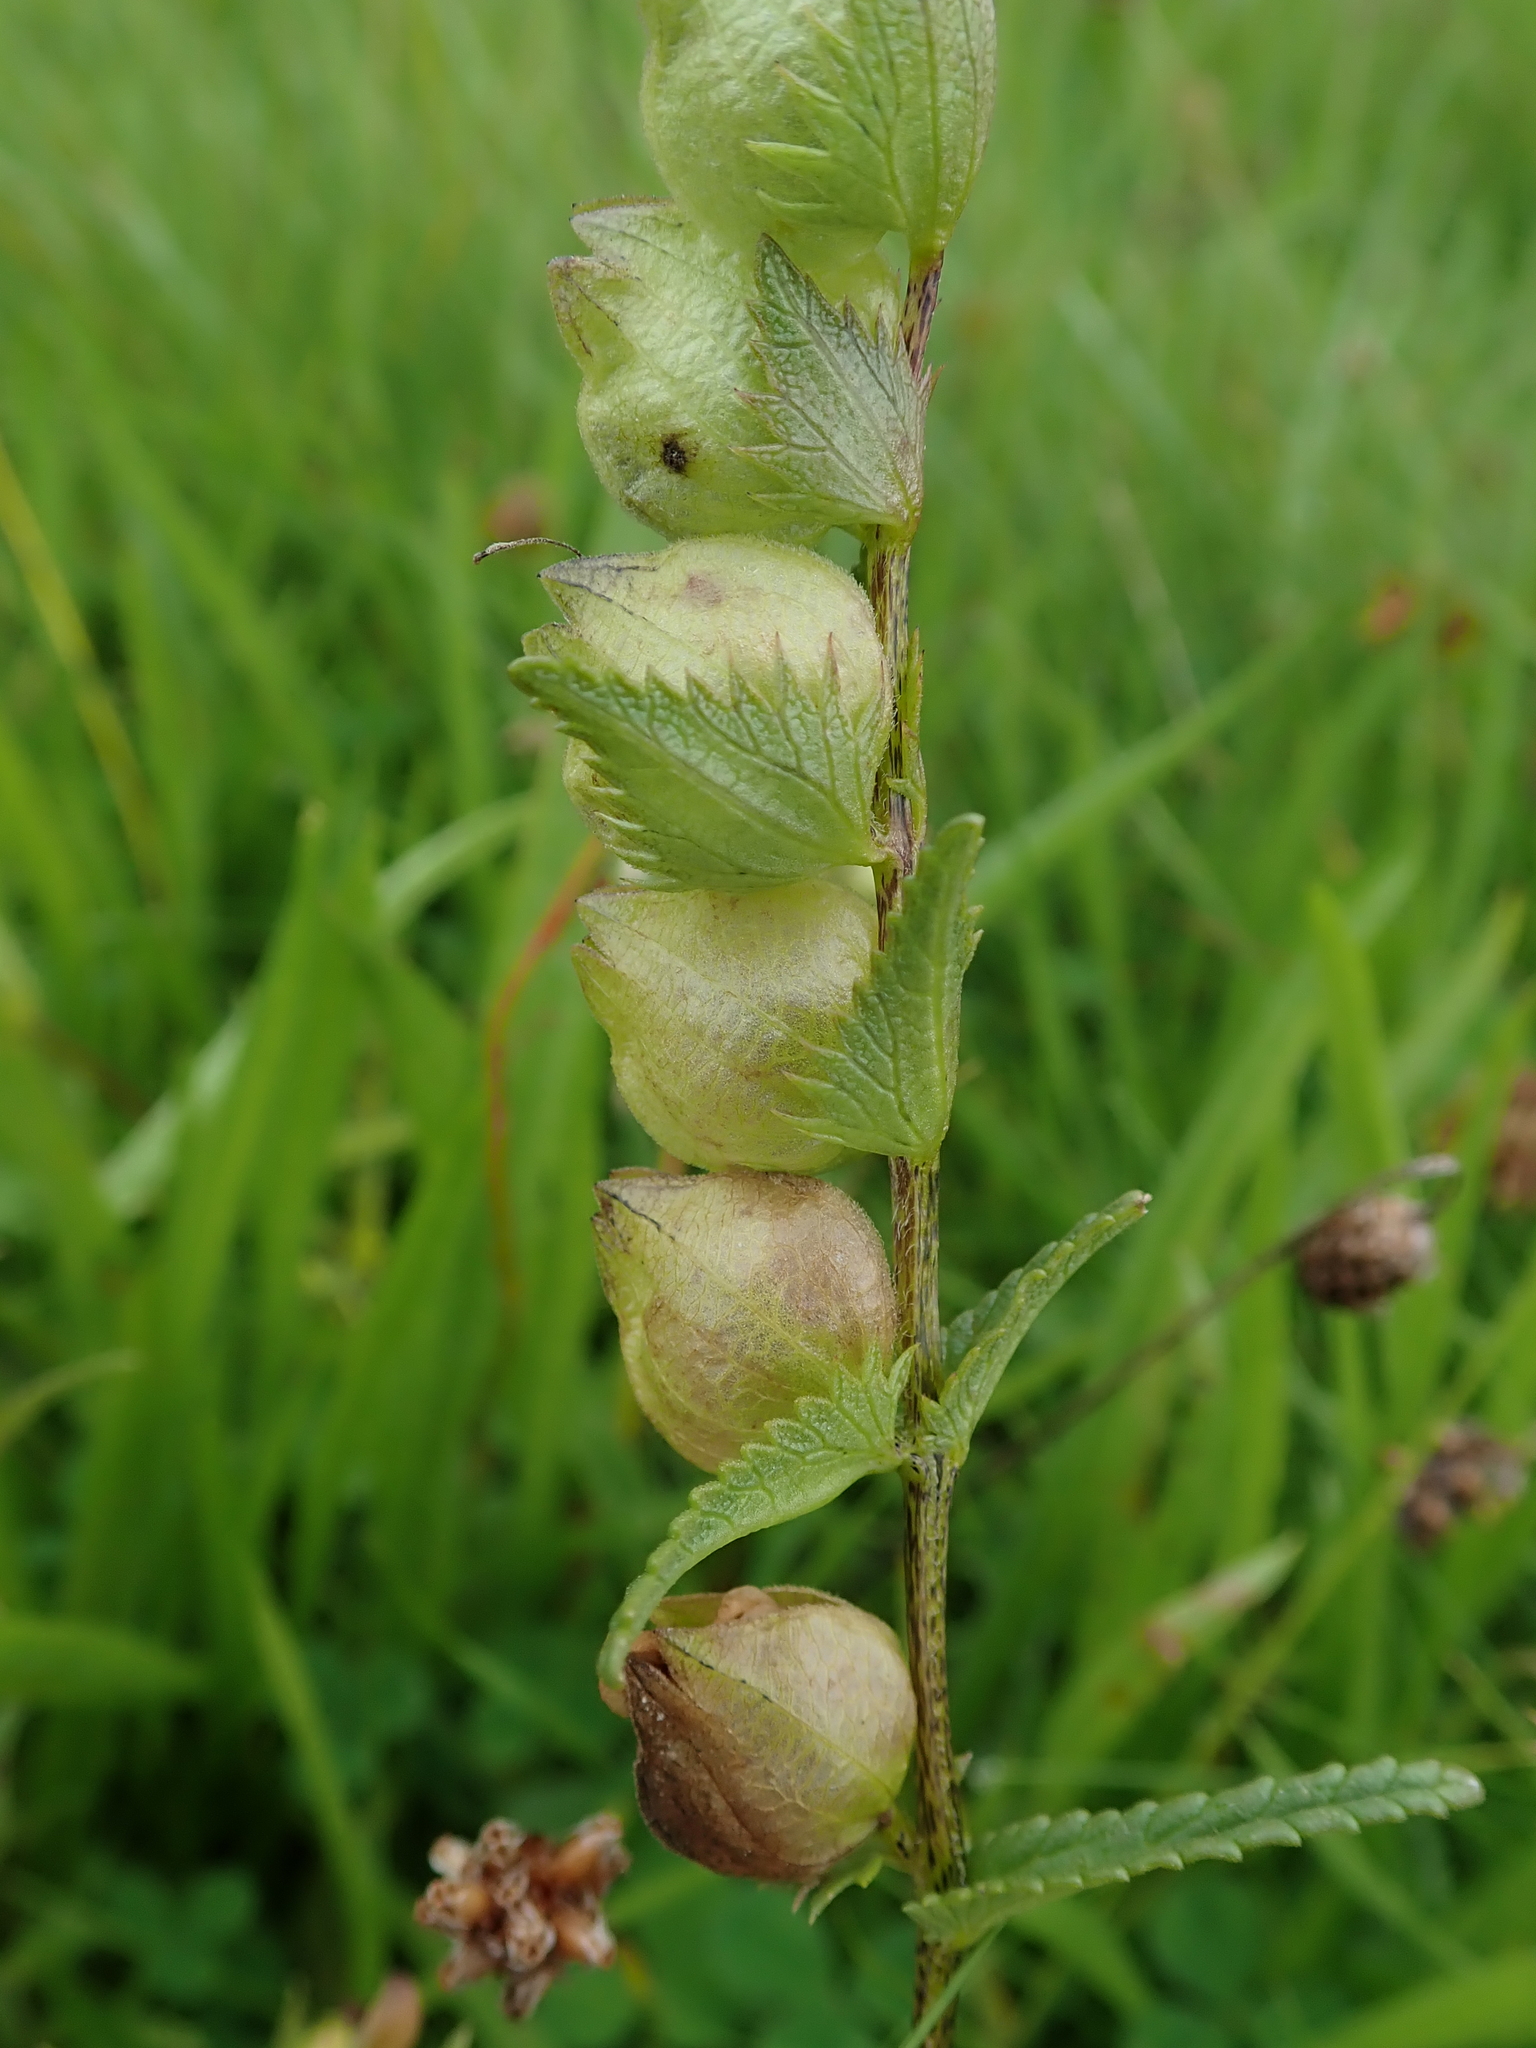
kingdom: Plantae
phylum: Tracheophyta
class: Magnoliopsida
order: Lamiales
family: Orobanchaceae
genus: Rhinanthus
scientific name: Rhinanthus minor
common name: Yellow-rattle
